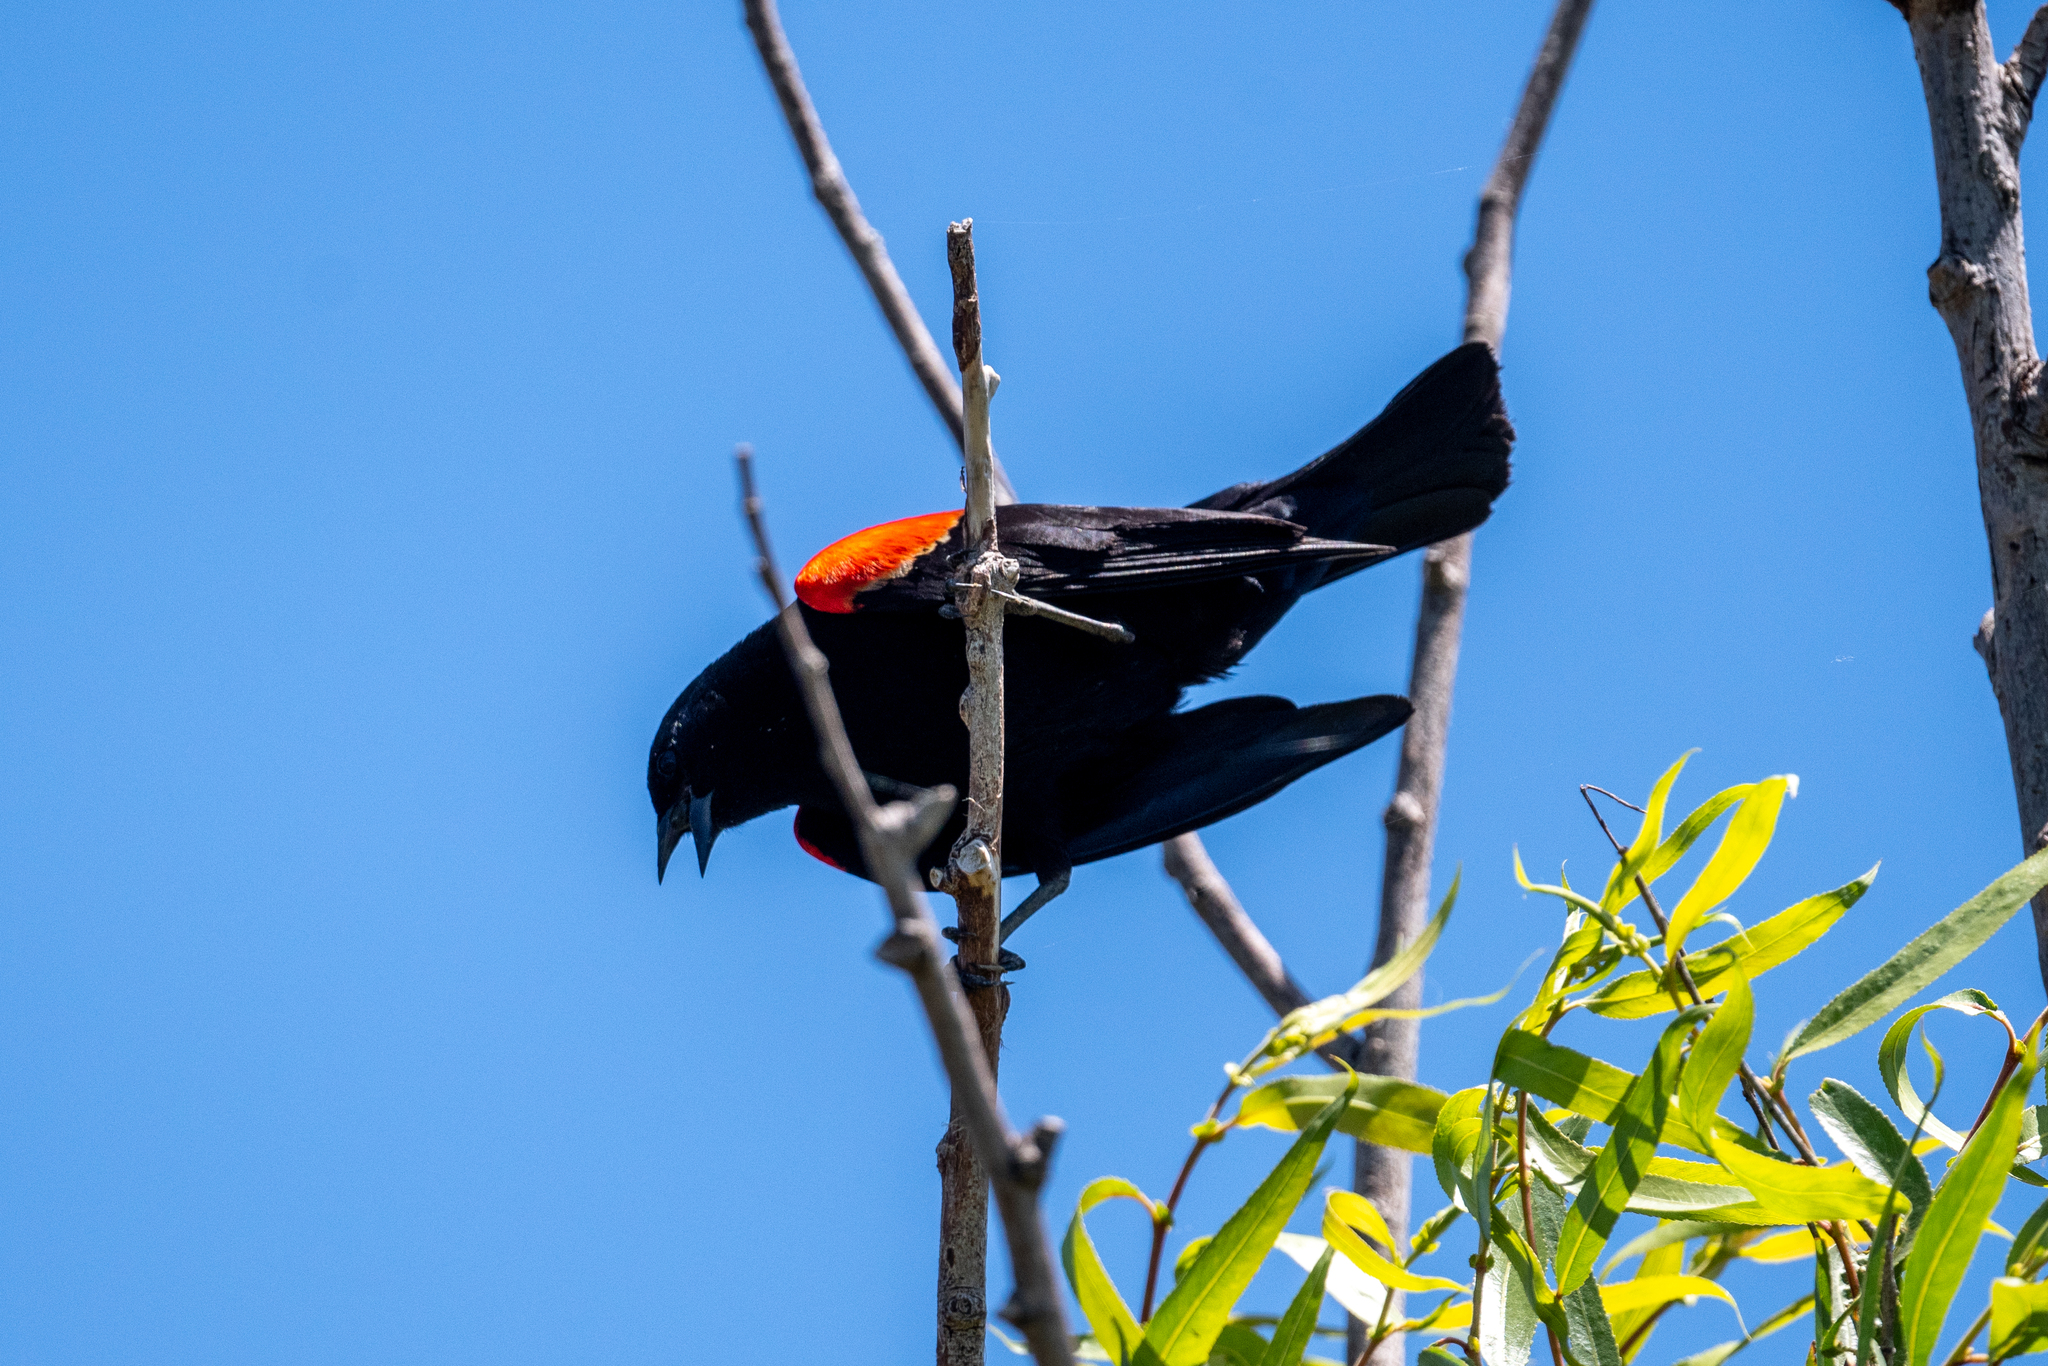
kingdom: Animalia
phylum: Chordata
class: Aves
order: Passeriformes
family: Icteridae
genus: Agelaius
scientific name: Agelaius phoeniceus
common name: Red-winged blackbird
